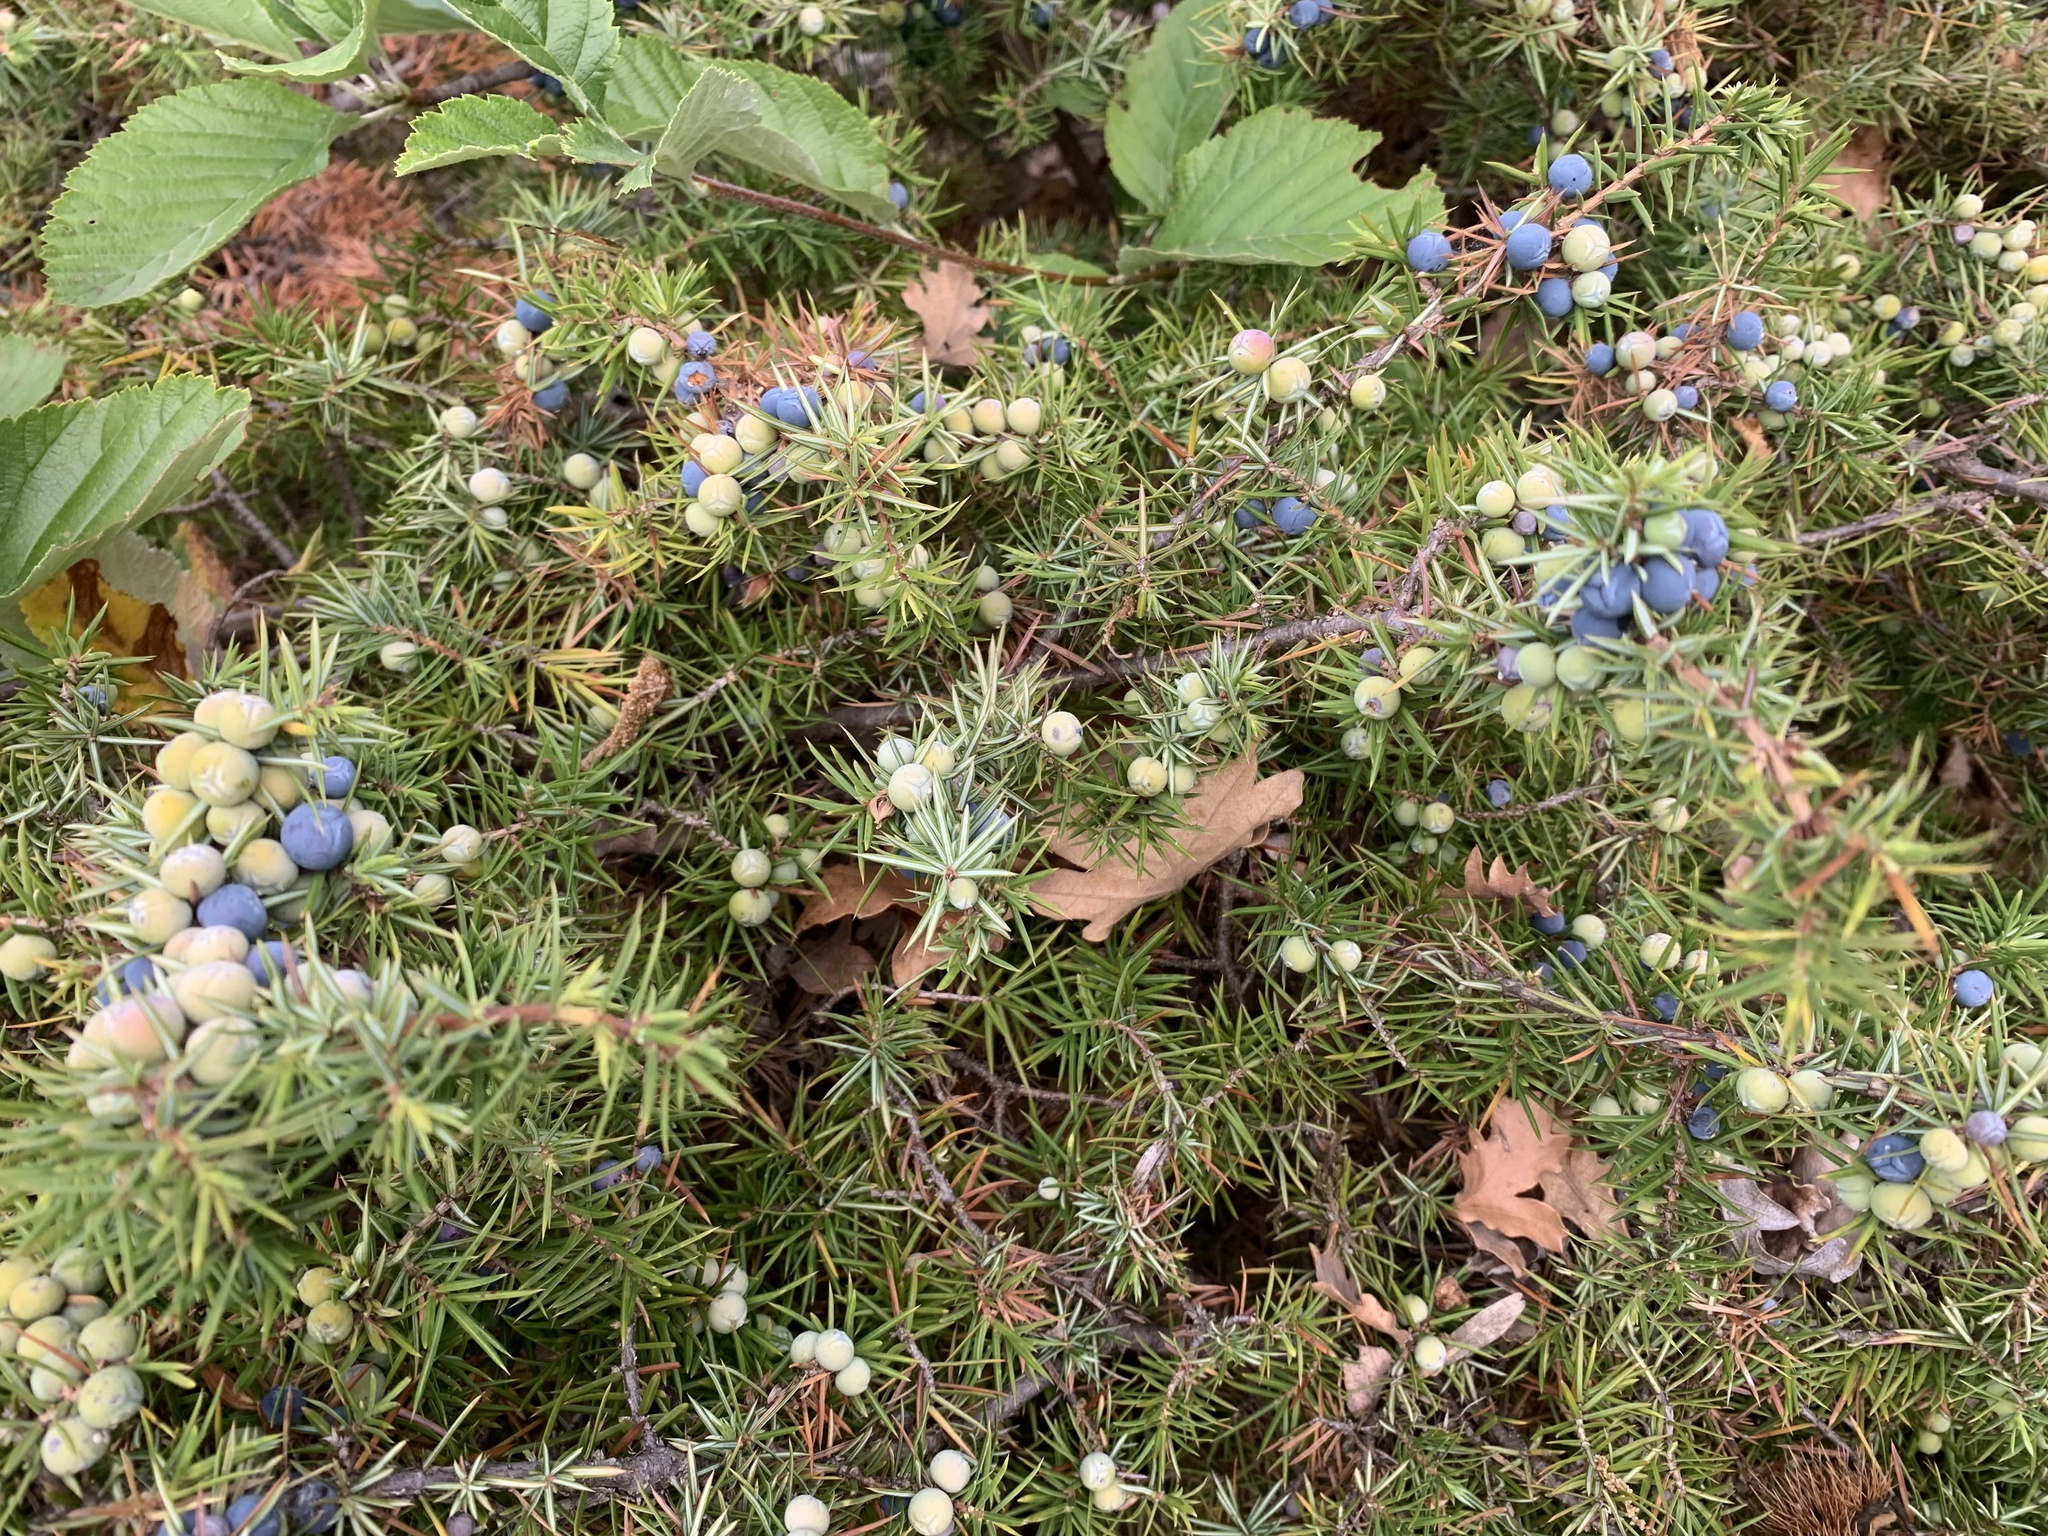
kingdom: Plantae
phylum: Tracheophyta
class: Pinopsida
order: Pinales
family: Cupressaceae
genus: Juniperus
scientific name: Juniperus communis
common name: Common juniper
